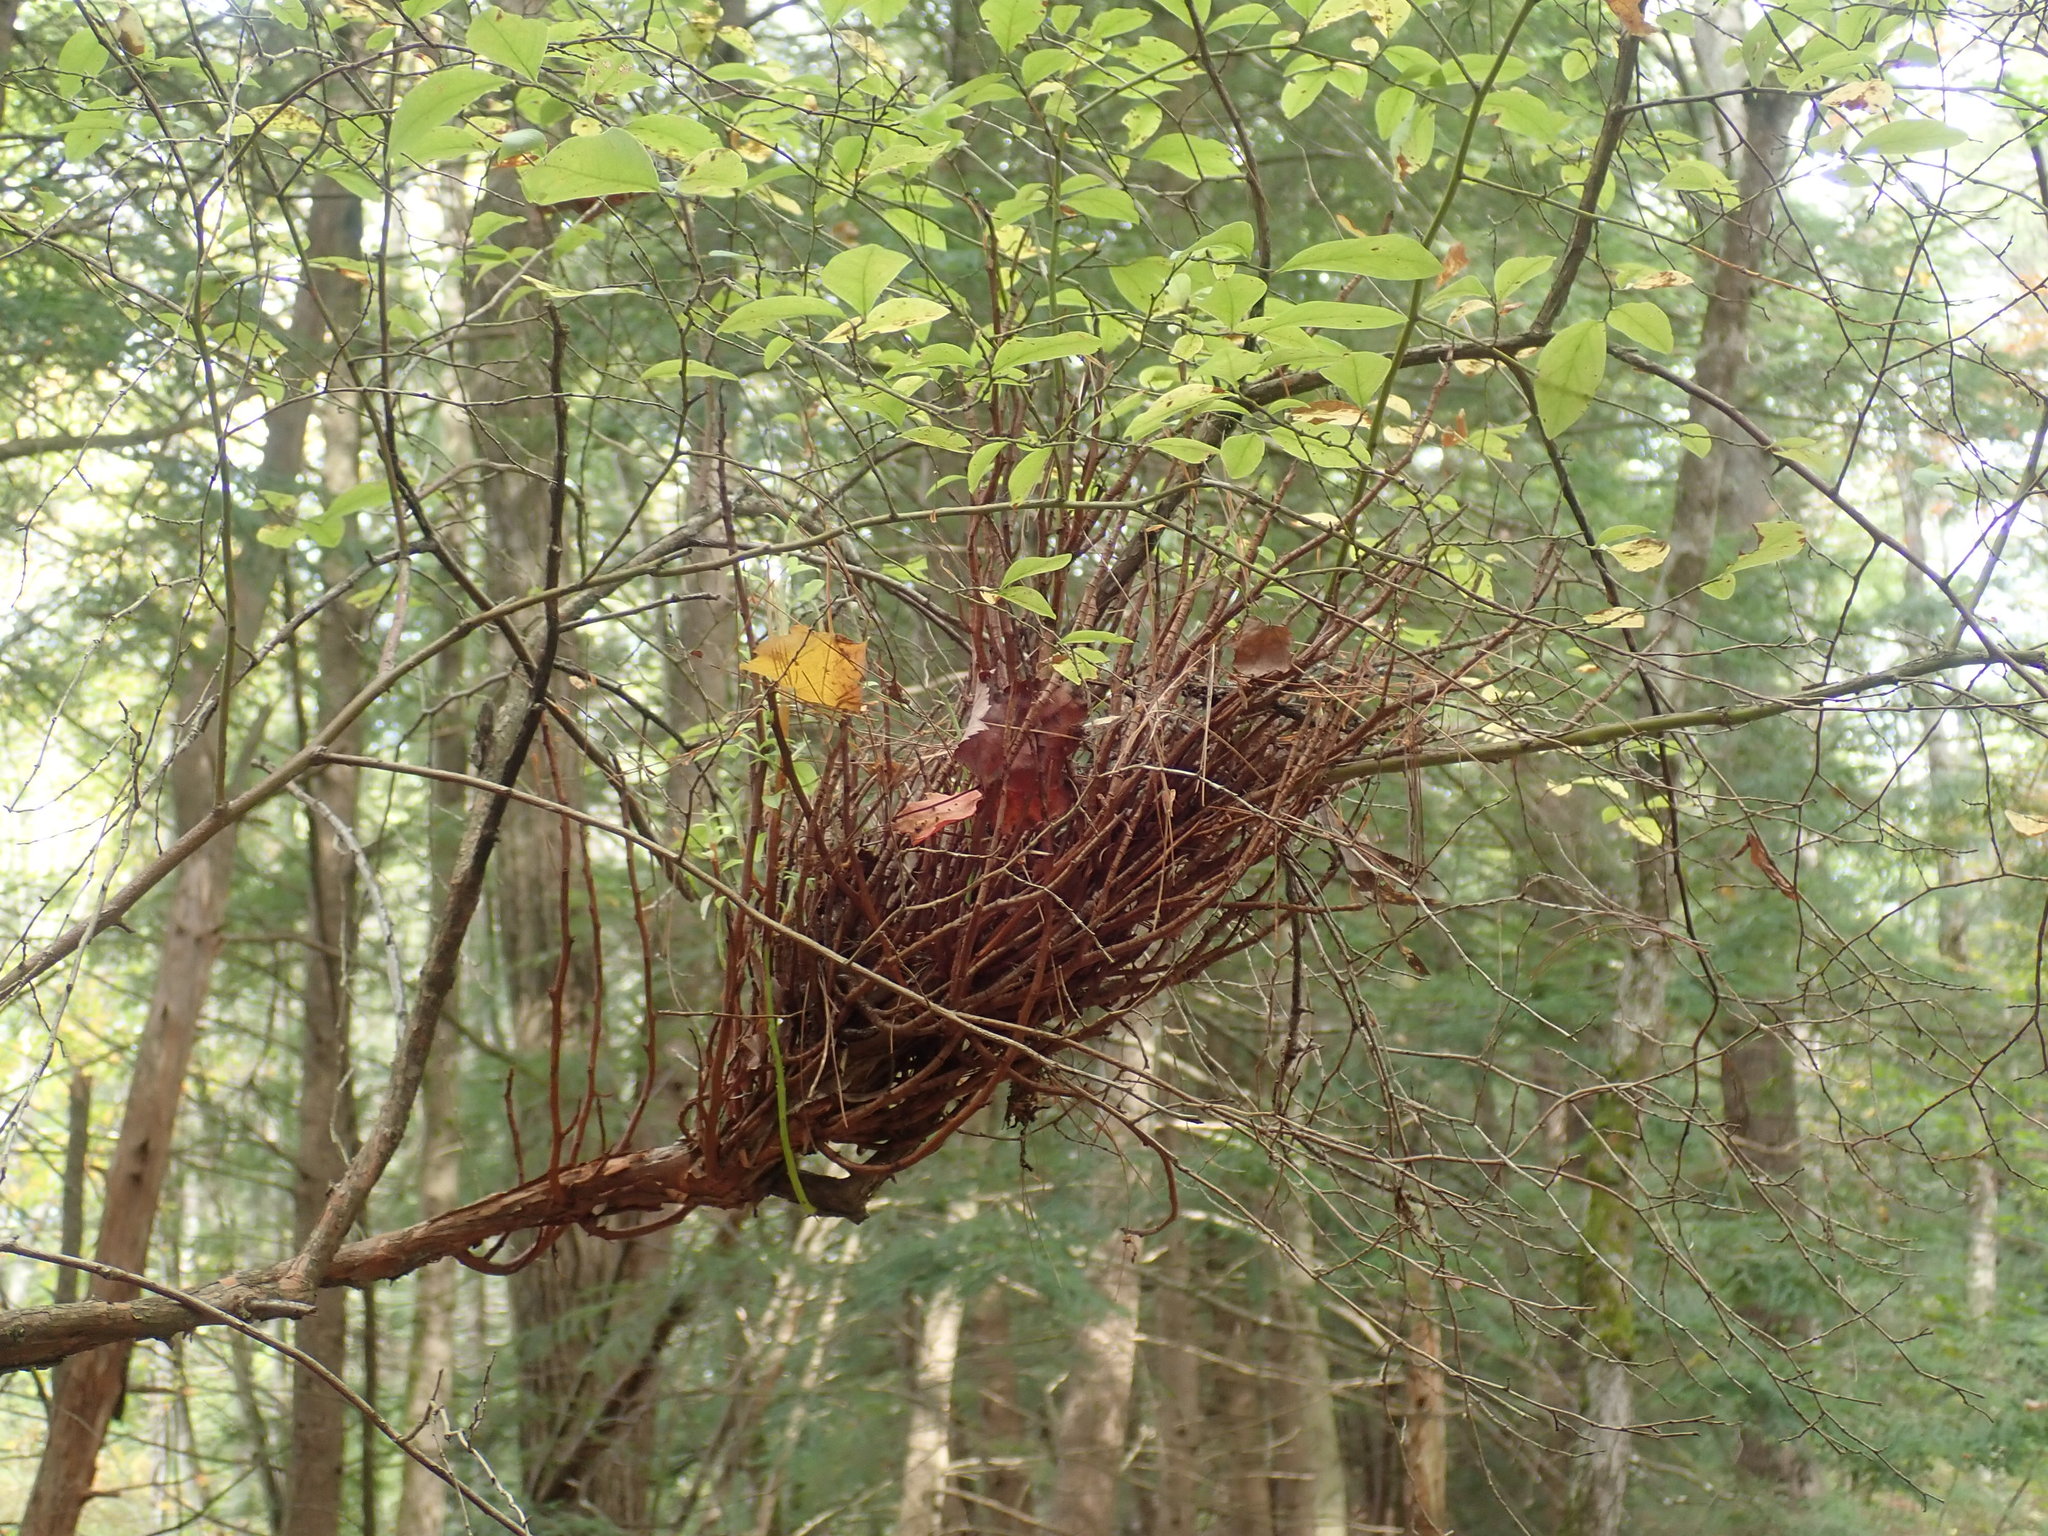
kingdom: Fungi
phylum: Basidiomycota
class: Pucciniomycetes
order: Pucciniales
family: Pucciniastraceae
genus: Calyptospora
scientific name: Calyptospora columnaris
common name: Huckleberry broom rust fungus
